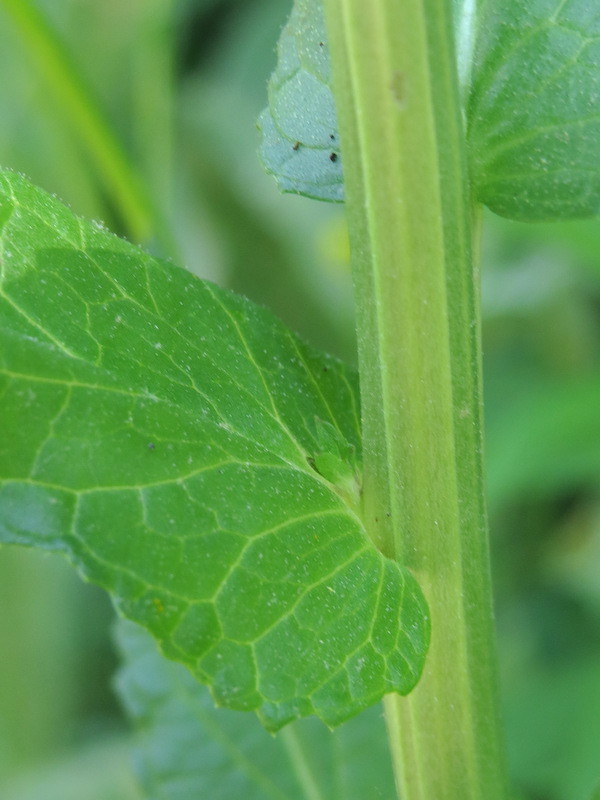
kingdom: Plantae
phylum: Tracheophyta
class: Magnoliopsida
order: Lamiales
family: Scrophulariaceae
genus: Verbascum
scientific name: Verbascum blattaria
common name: Moth mullein
